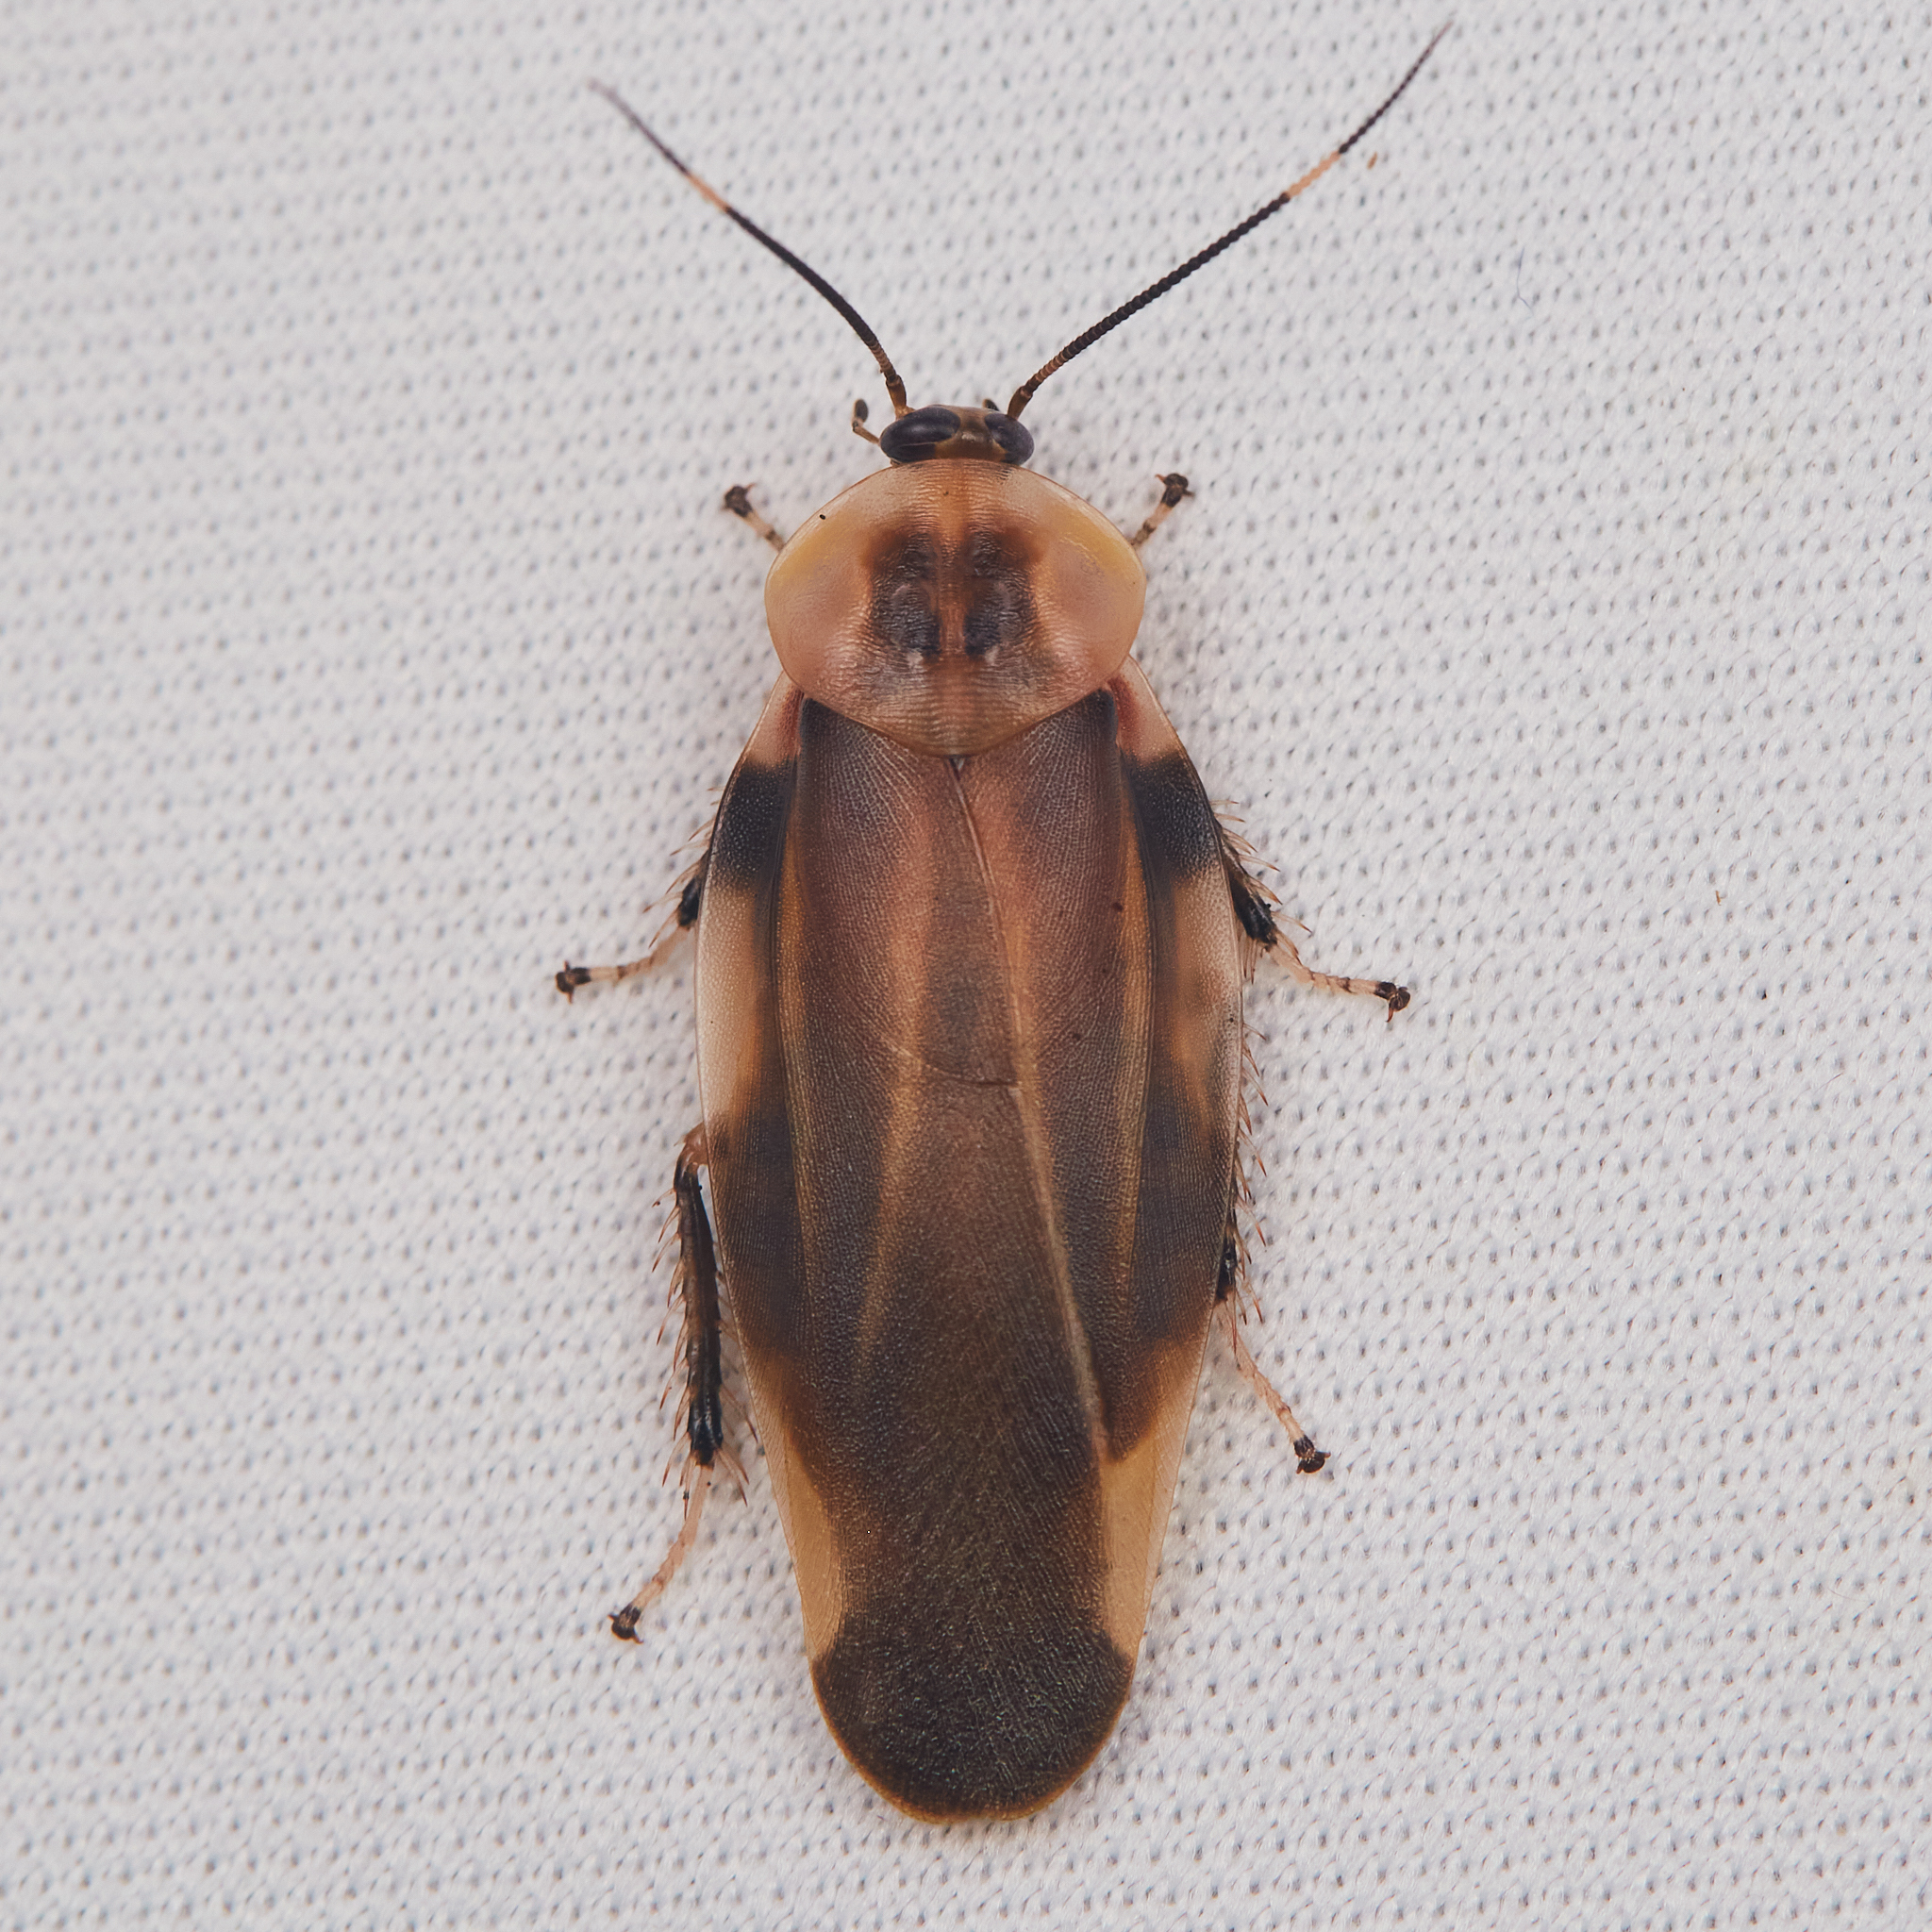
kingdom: Animalia
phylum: Arthropoda
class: Insecta
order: Blattodea
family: Blaberidae
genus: Achroblatta
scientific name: Achroblatta luteola
